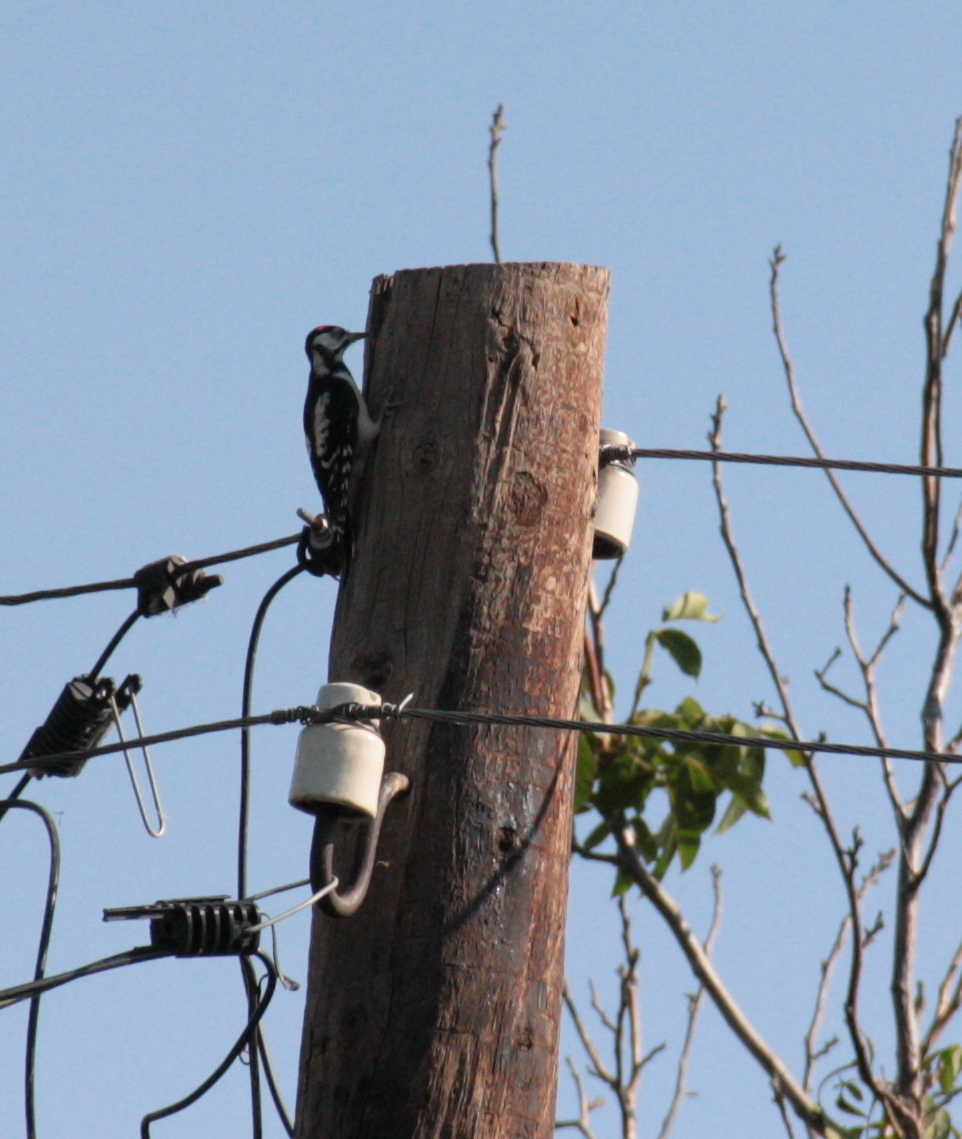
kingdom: Animalia
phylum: Chordata
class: Aves
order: Piciformes
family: Picidae
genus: Dendrocopos
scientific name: Dendrocopos major
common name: Great spotted woodpecker
